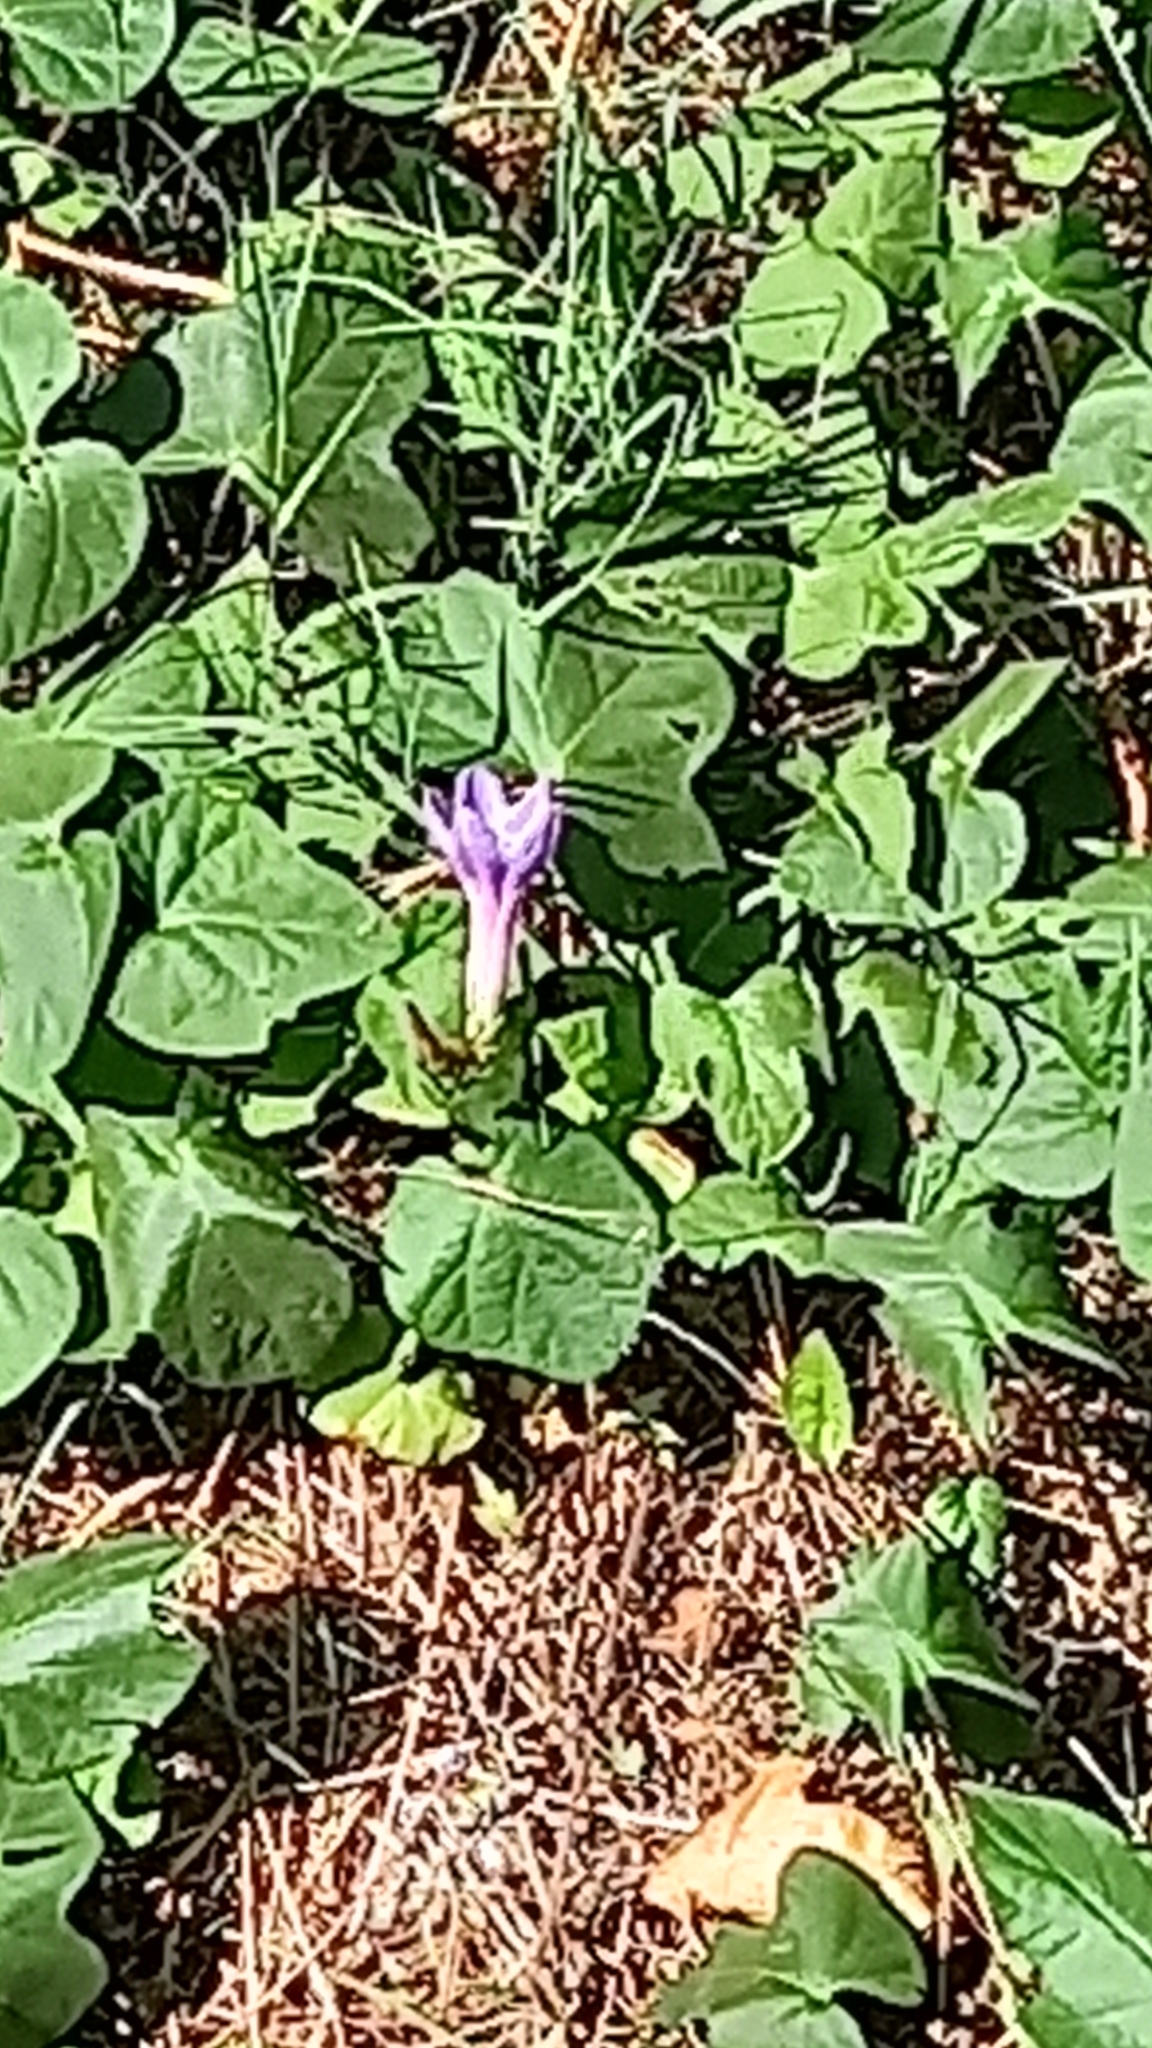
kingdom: Plantae
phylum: Tracheophyta
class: Magnoliopsida
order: Solanales
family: Convolvulaceae
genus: Ipomoea
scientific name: Ipomoea indica
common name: Blue dawnflower
